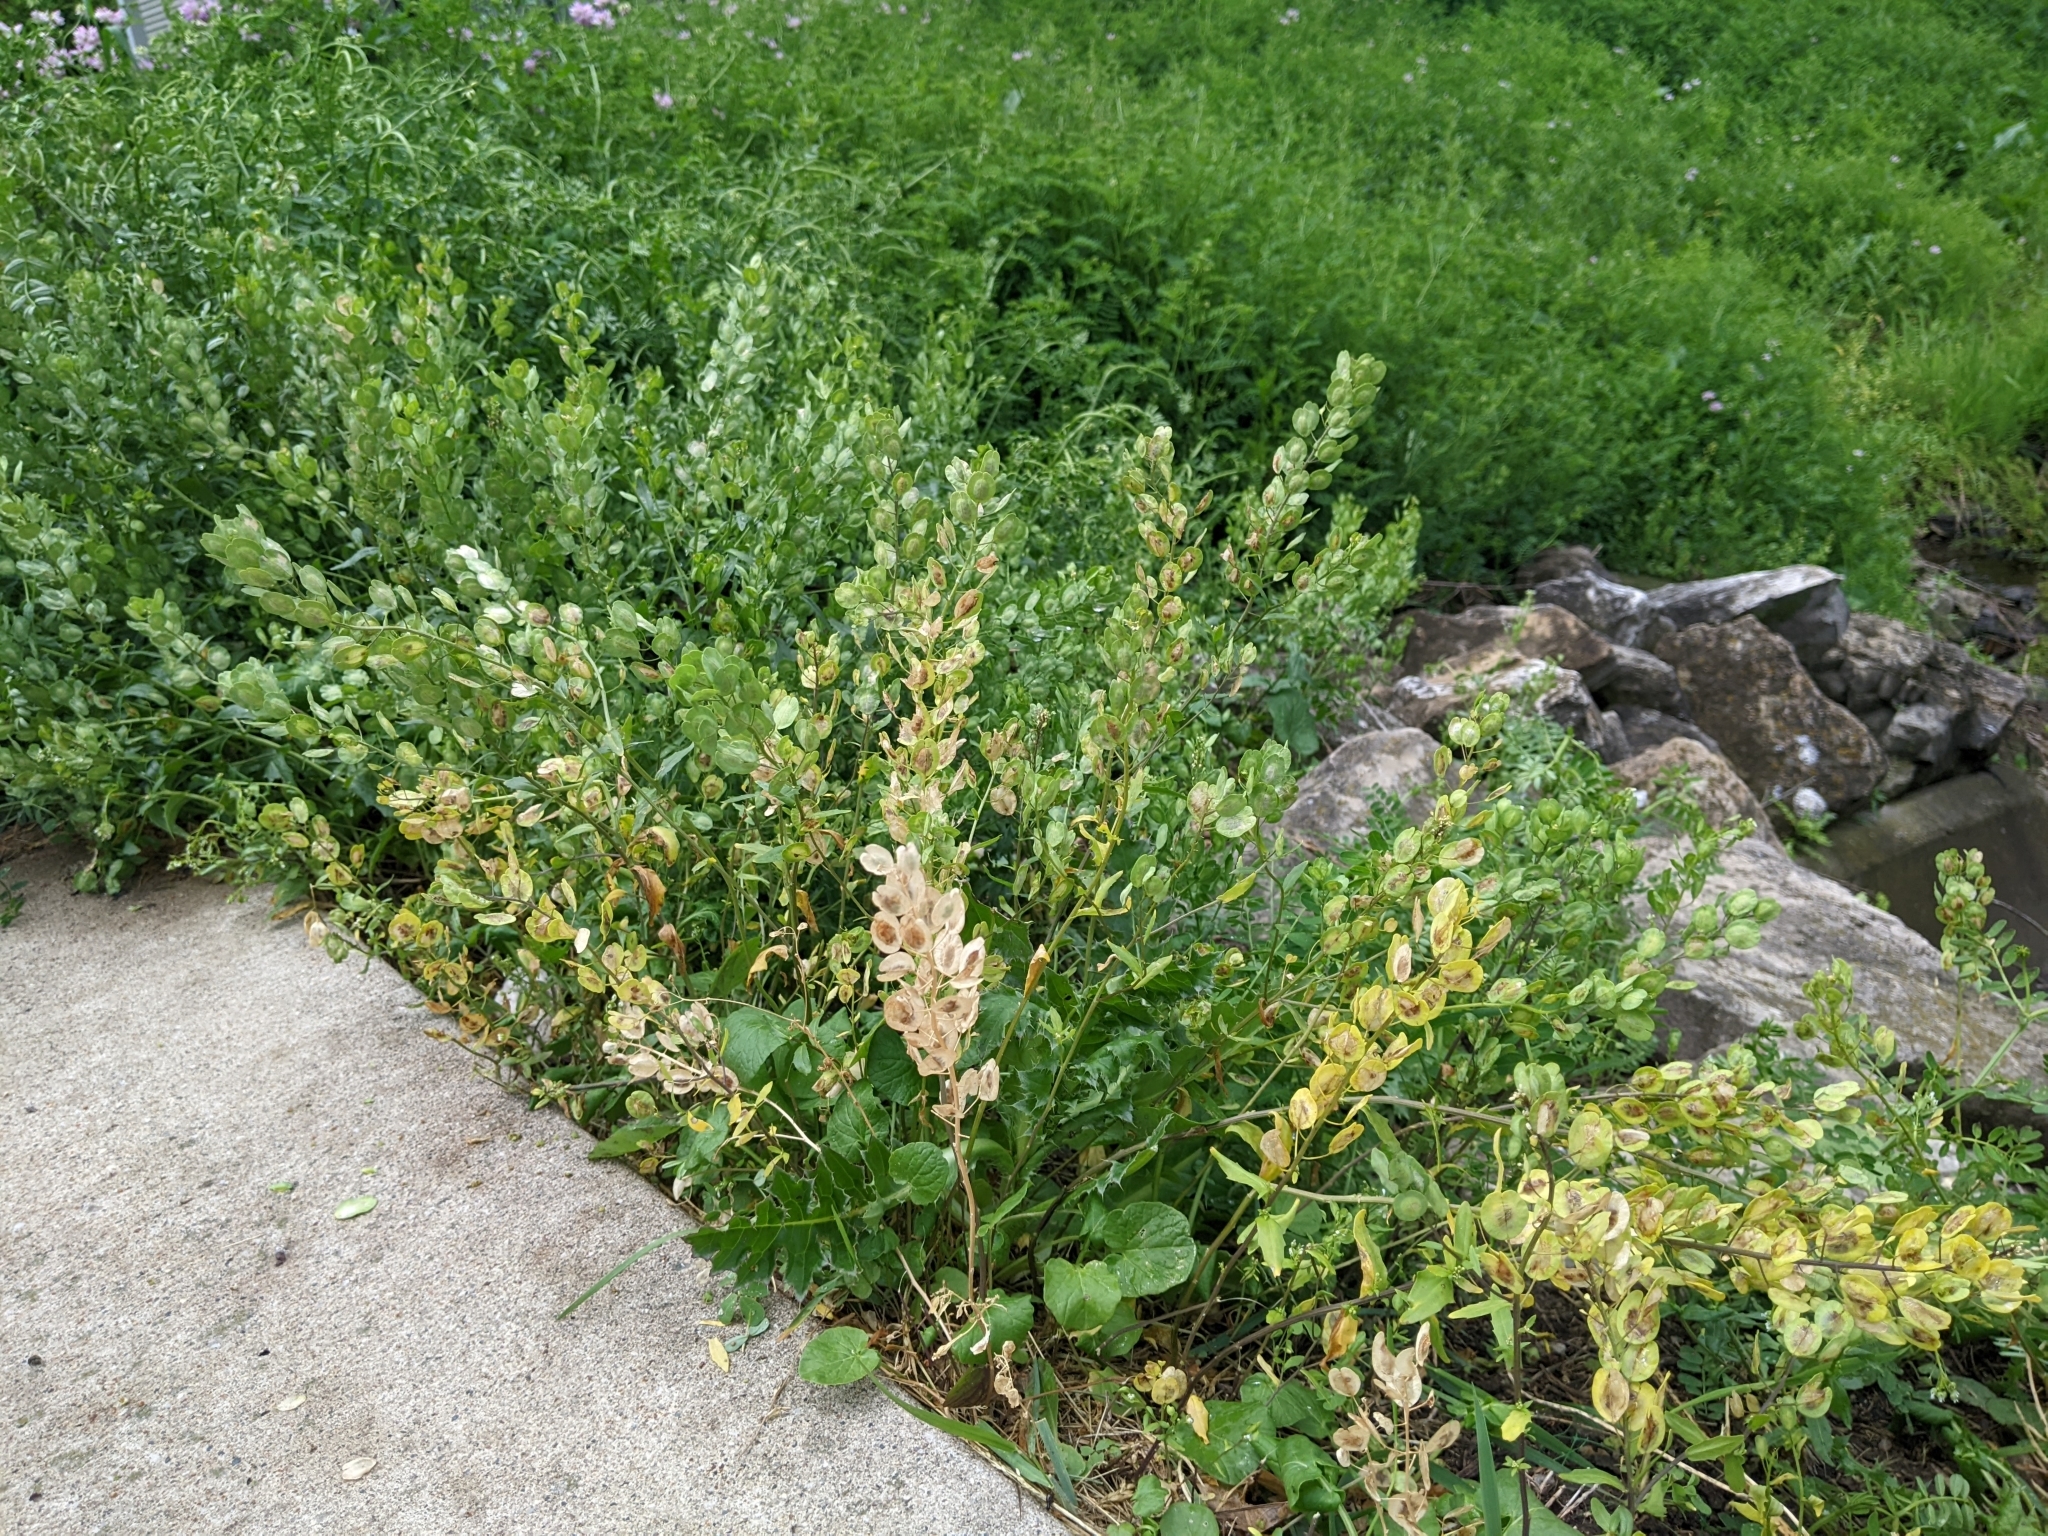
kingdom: Plantae
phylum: Tracheophyta
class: Magnoliopsida
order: Brassicales
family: Brassicaceae
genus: Thlaspi
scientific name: Thlaspi arvense
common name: Field pennycress
